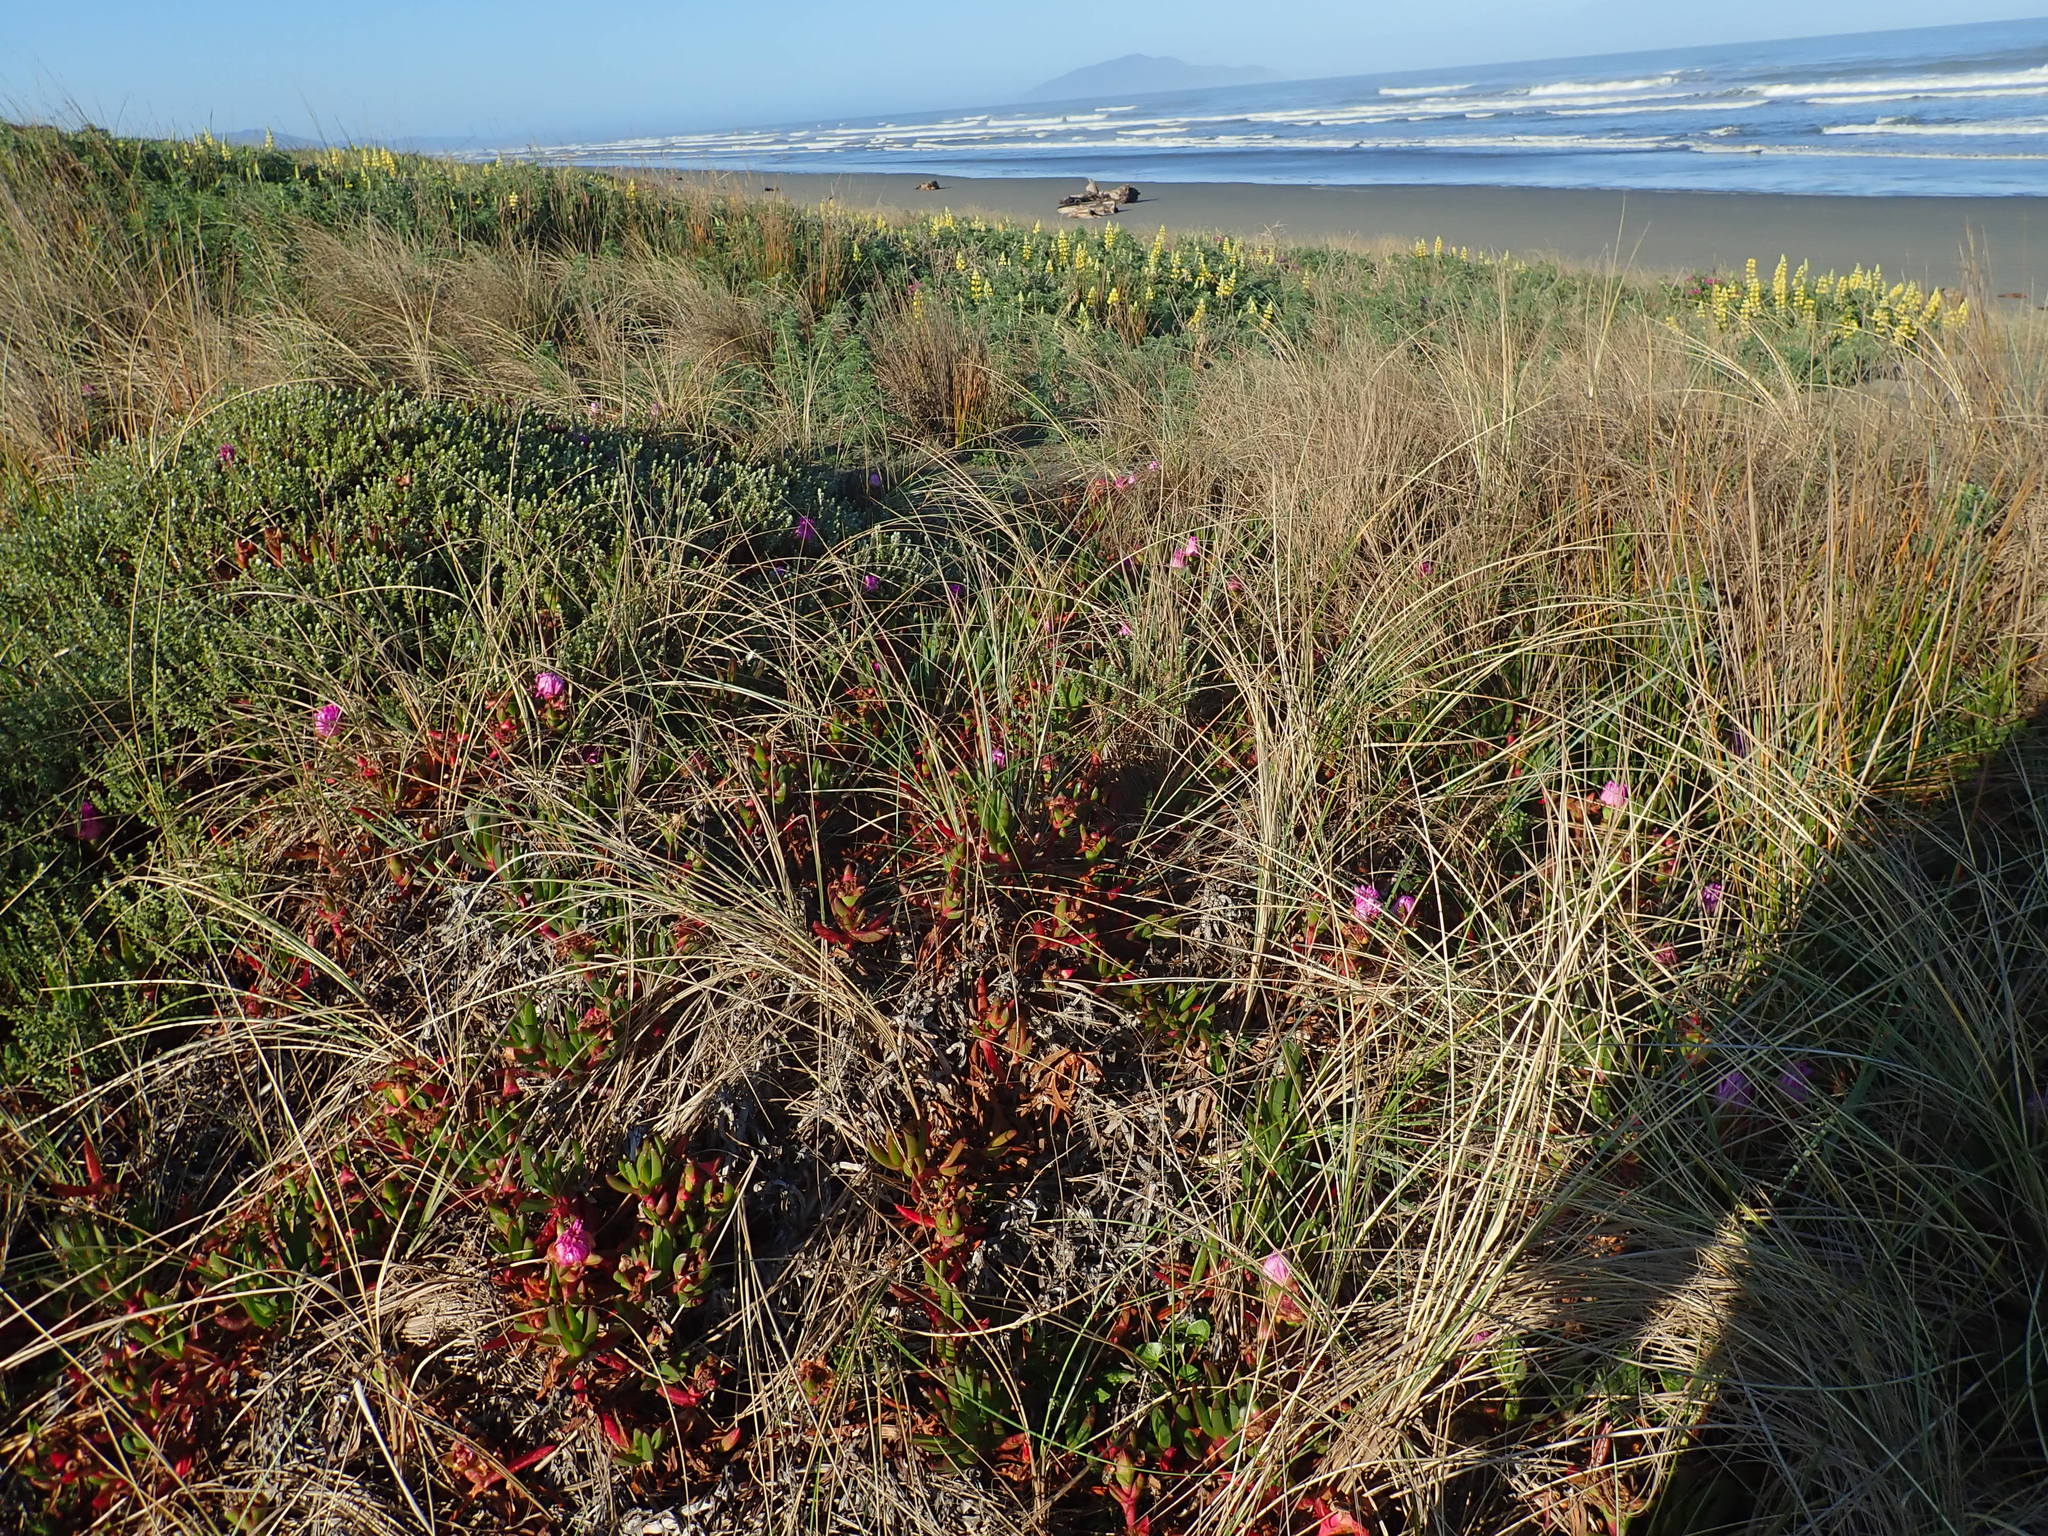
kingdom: Plantae
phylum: Tracheophyta
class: Magnoliopsida
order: Caryophyllales
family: Aizoaceae
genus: Carpobrotus
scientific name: Carpobrotus chilensis
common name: Sea fig
